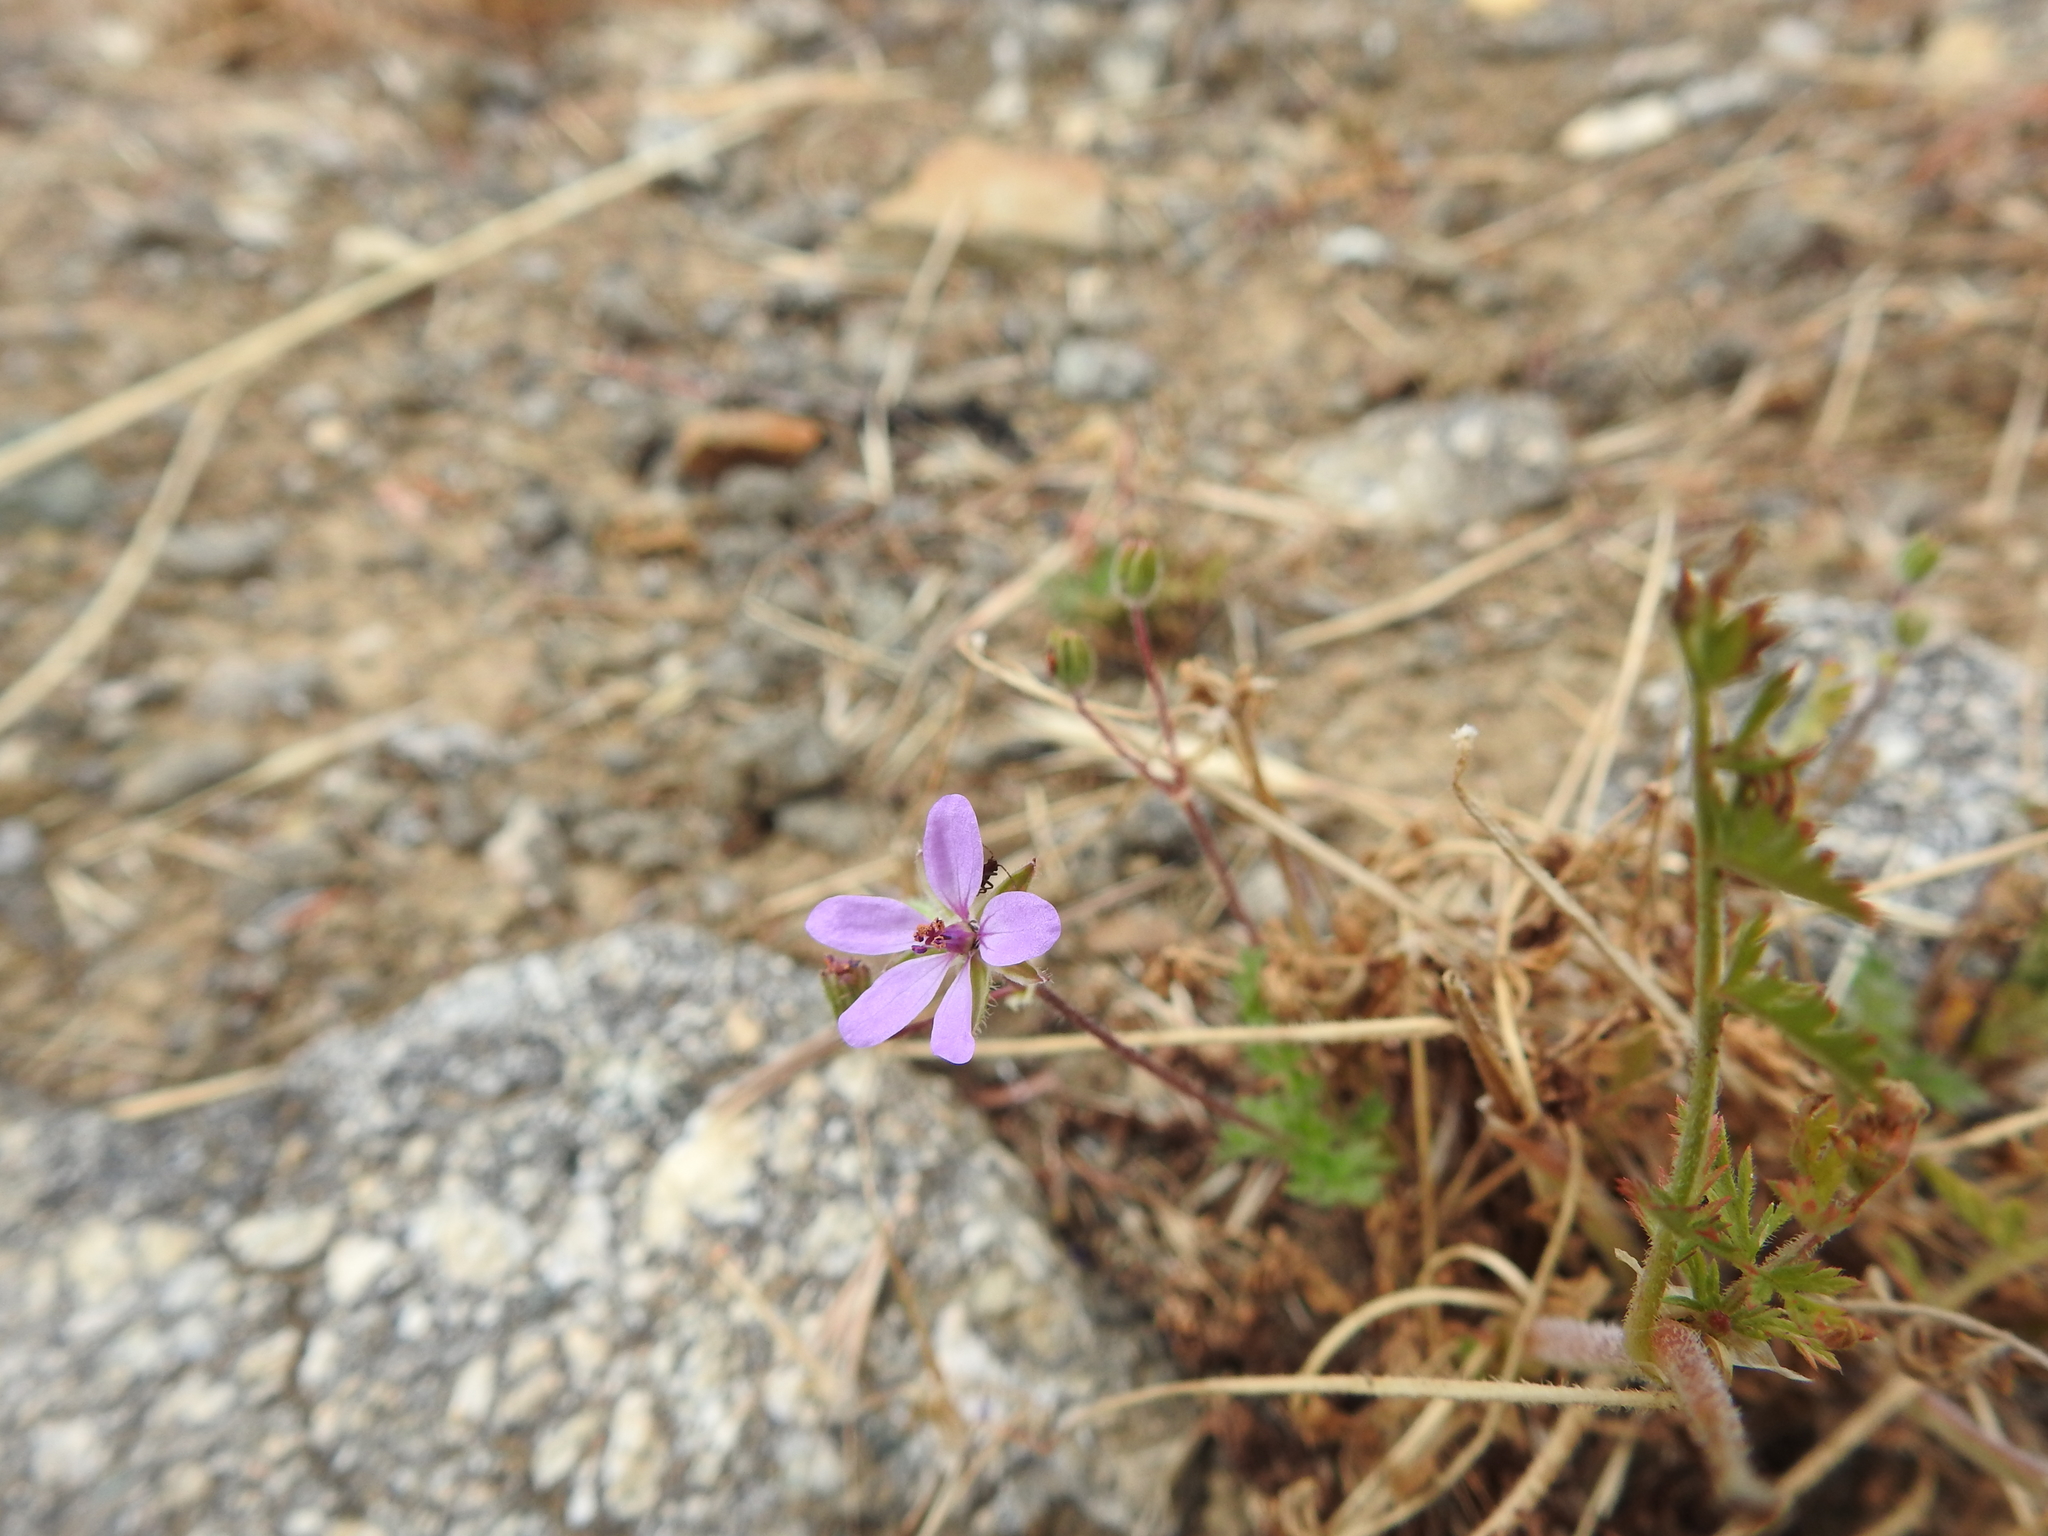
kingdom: Plantae
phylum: Tracheophyta
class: Magnoliopsida
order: Geraniales
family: Geraniaceae
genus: Erodium
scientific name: Erodium cicutarium
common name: Common stork's-bill
